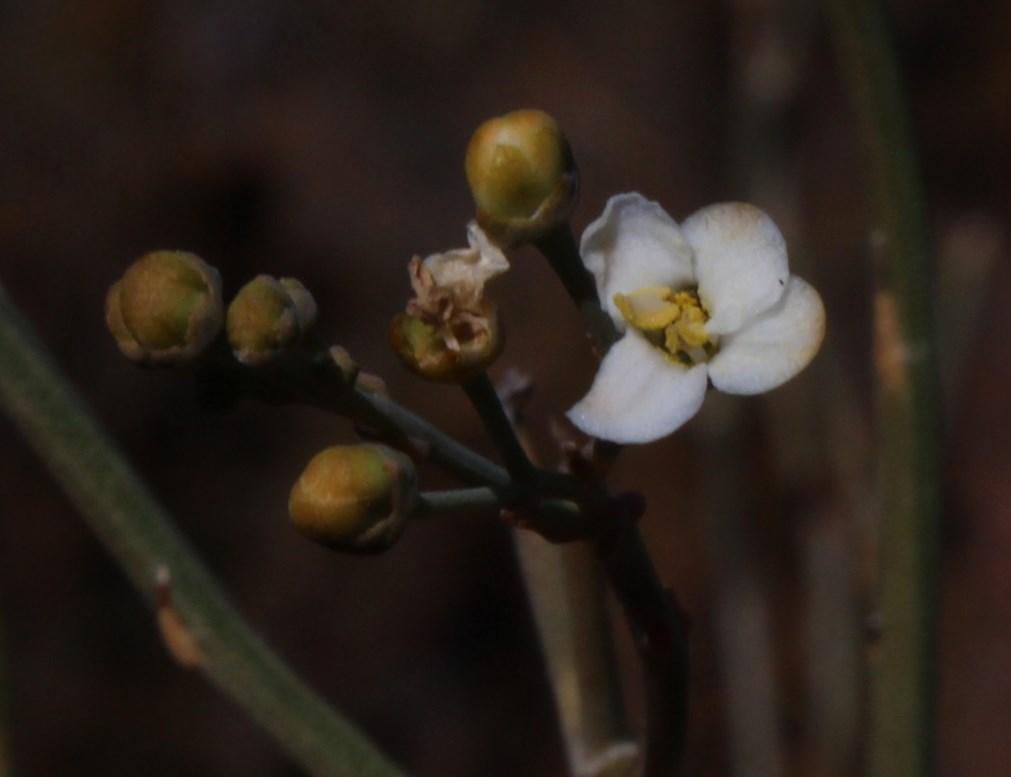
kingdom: Plantae
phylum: Tracheophyta
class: Magnoliopsida
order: Solanales
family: Montiniaceae
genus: Montinia
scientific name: Montinia caryophyllacea
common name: Wild clove-bush
